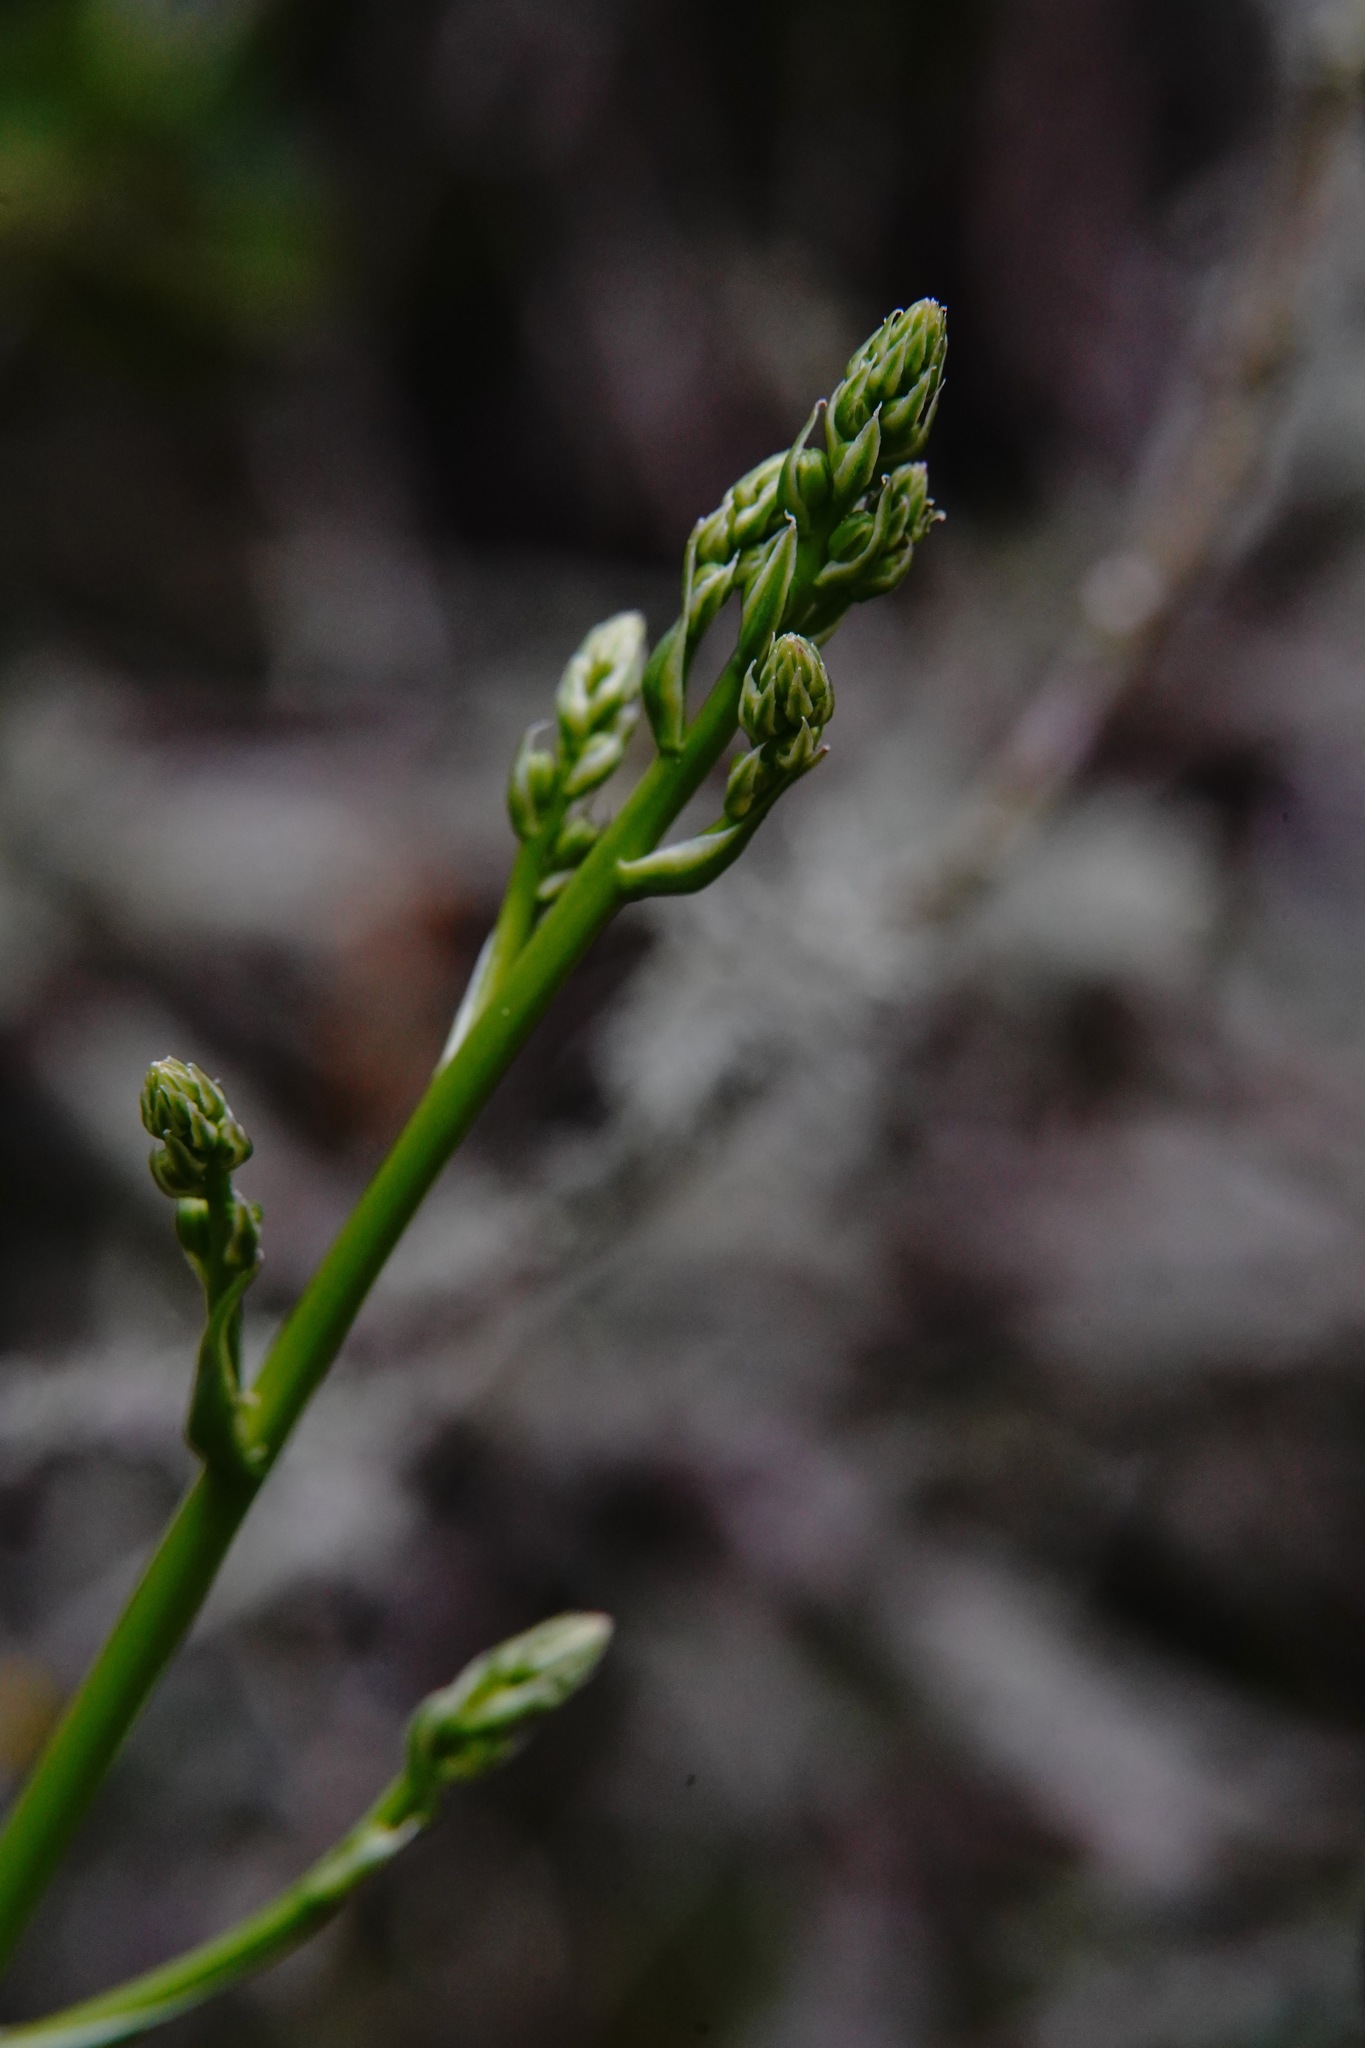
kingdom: Plantae
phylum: Tracheophyta
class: Liliopsida
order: Asparagales
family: Asparagaceae
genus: Chlorogalum
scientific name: Chlorogalum pomeridianum
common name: Amole
